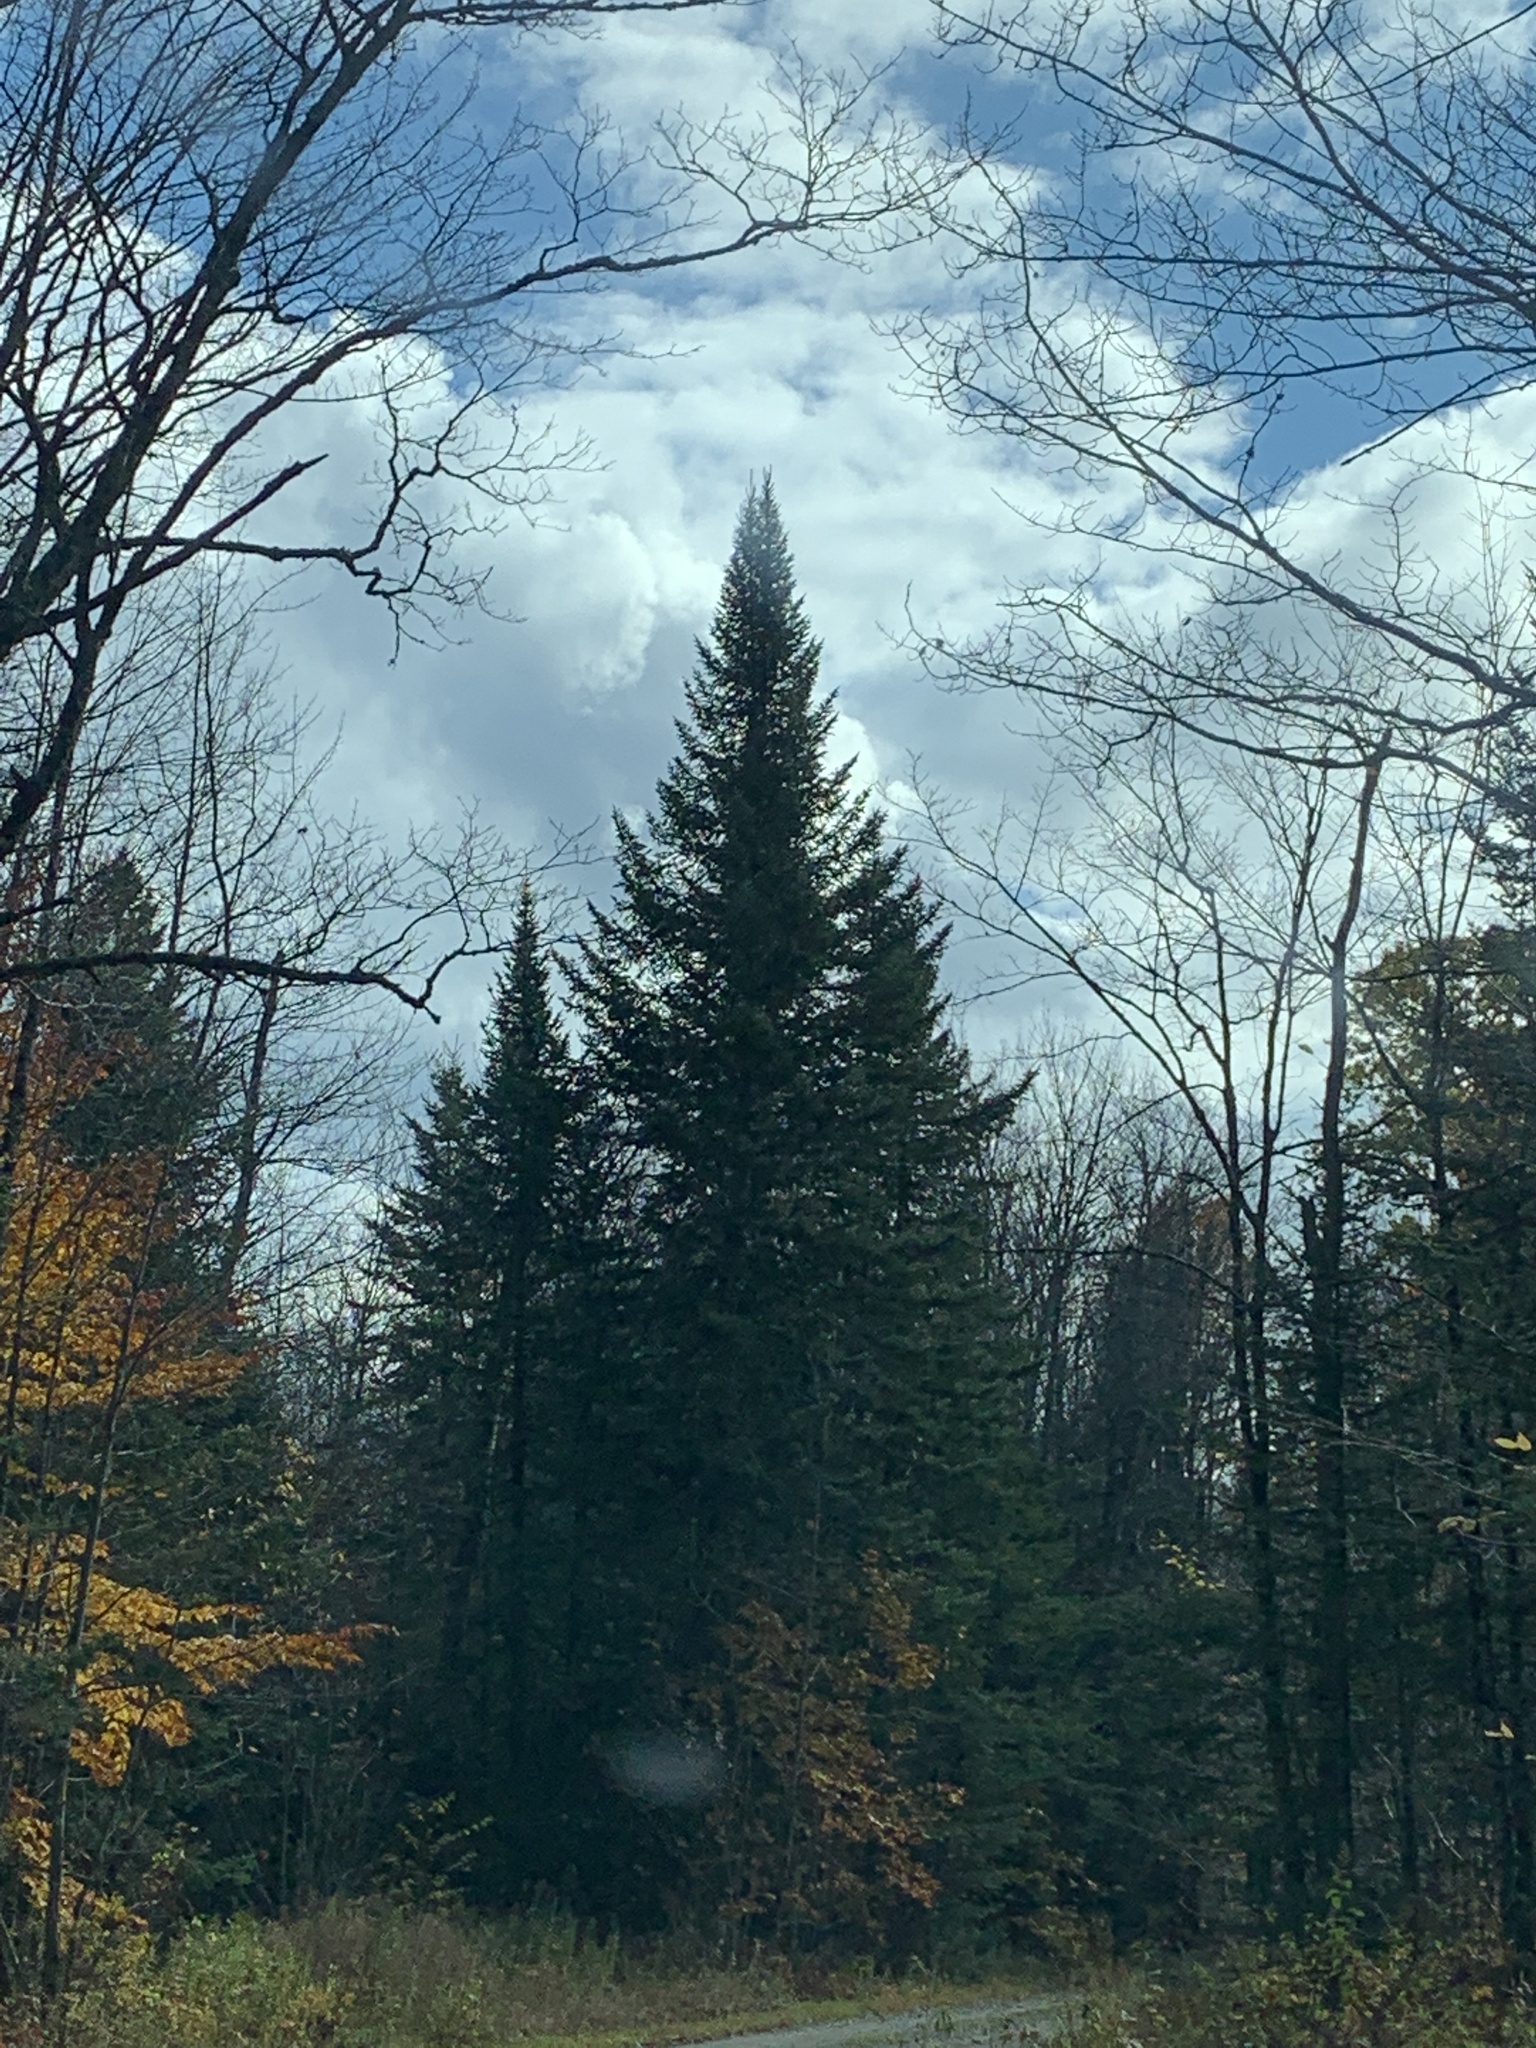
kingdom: Plantae
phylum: Tracheophyta
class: Pinopsida
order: Pinales
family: Pinaceae
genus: Abies
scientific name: Abies balsamea
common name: Balsam fir
